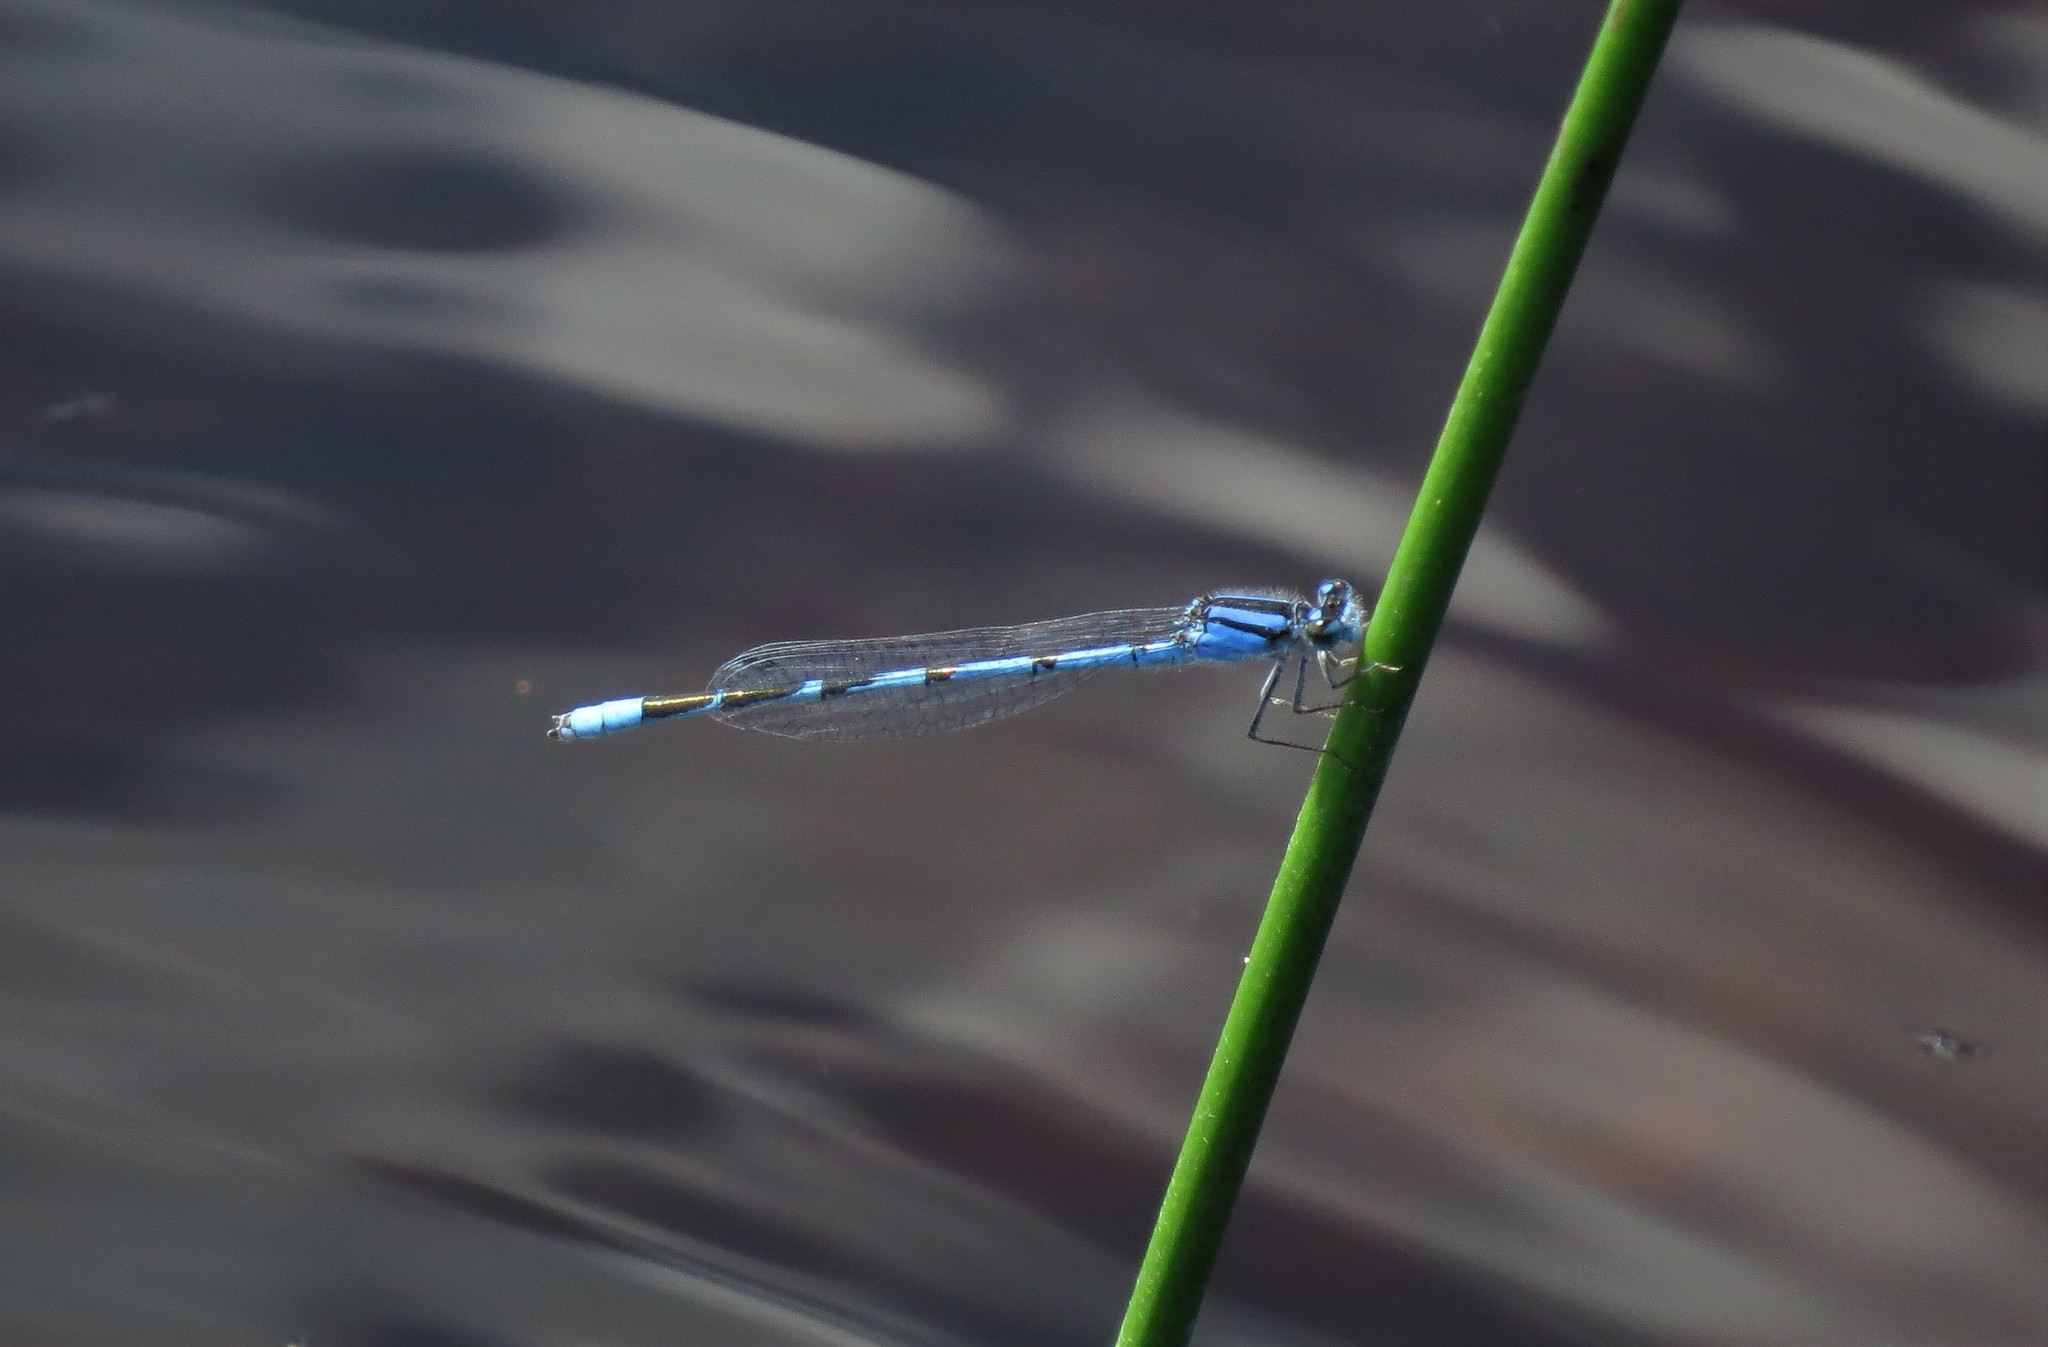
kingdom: Animalia
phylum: Arthropoda
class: Insecta
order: Odonata
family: Coenagrionidae
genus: Enallagma
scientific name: Enallagma civile
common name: Damselfly
